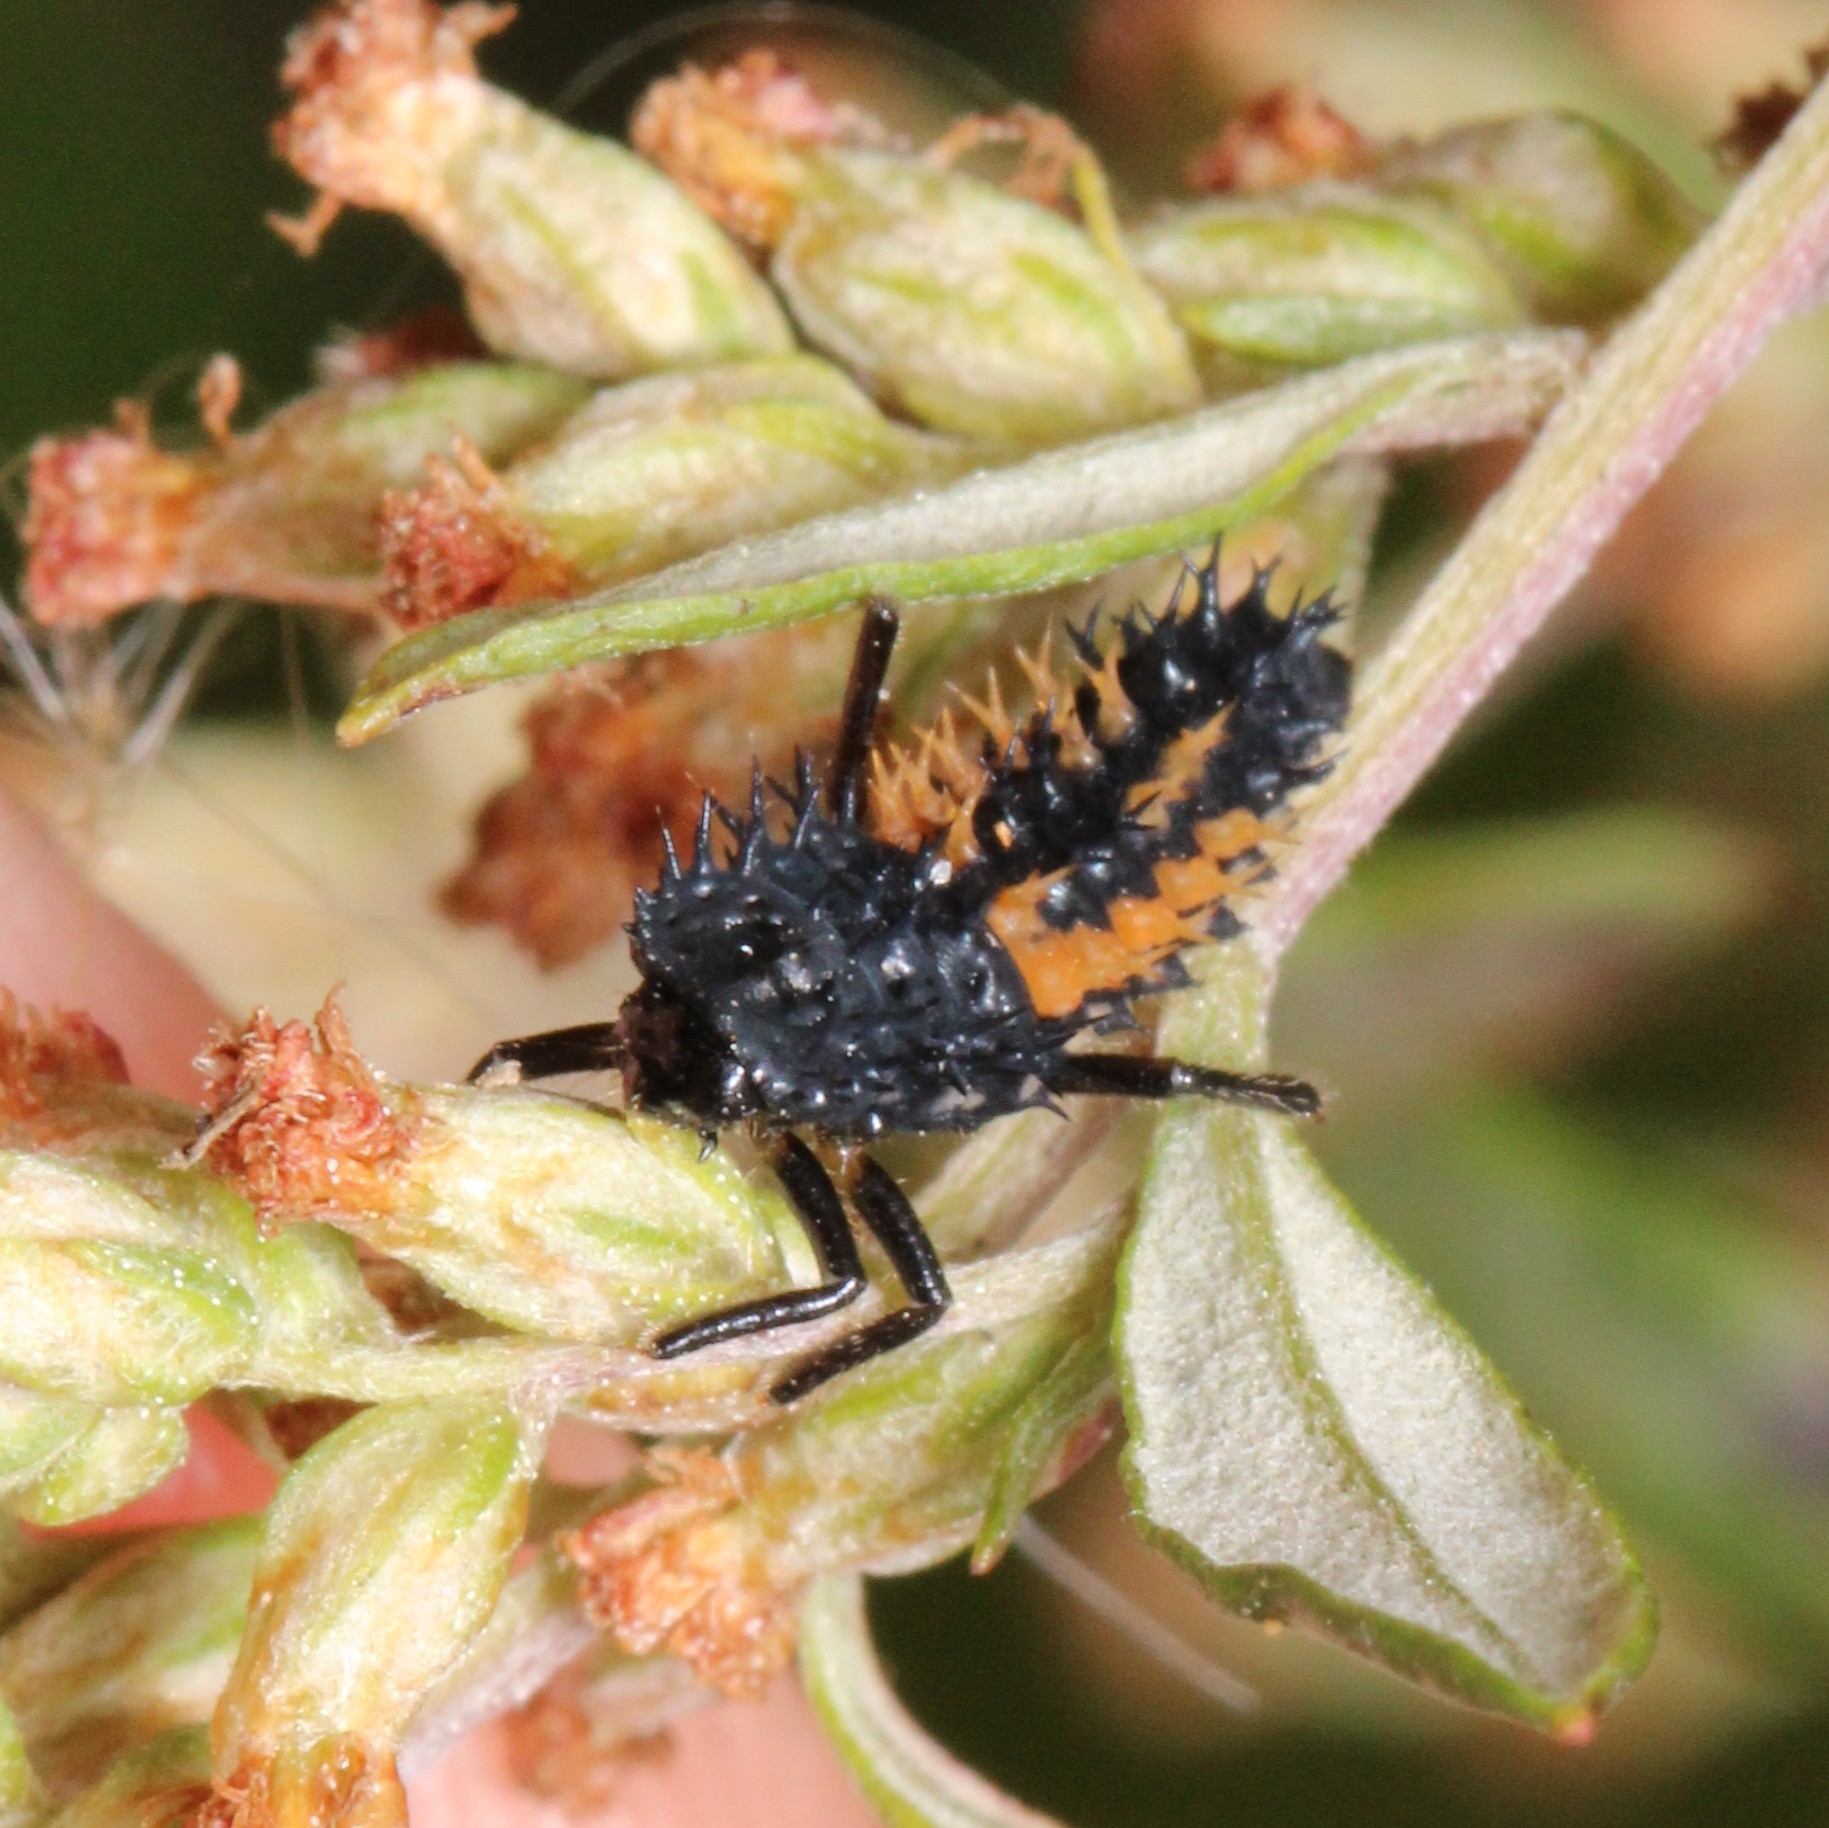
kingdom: Animalia
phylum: Arthropoda
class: Insecta
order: Coleoptera
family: Coccinellidae
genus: Harmonia
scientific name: Harmonia axyridis
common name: Harlequin ladybird
